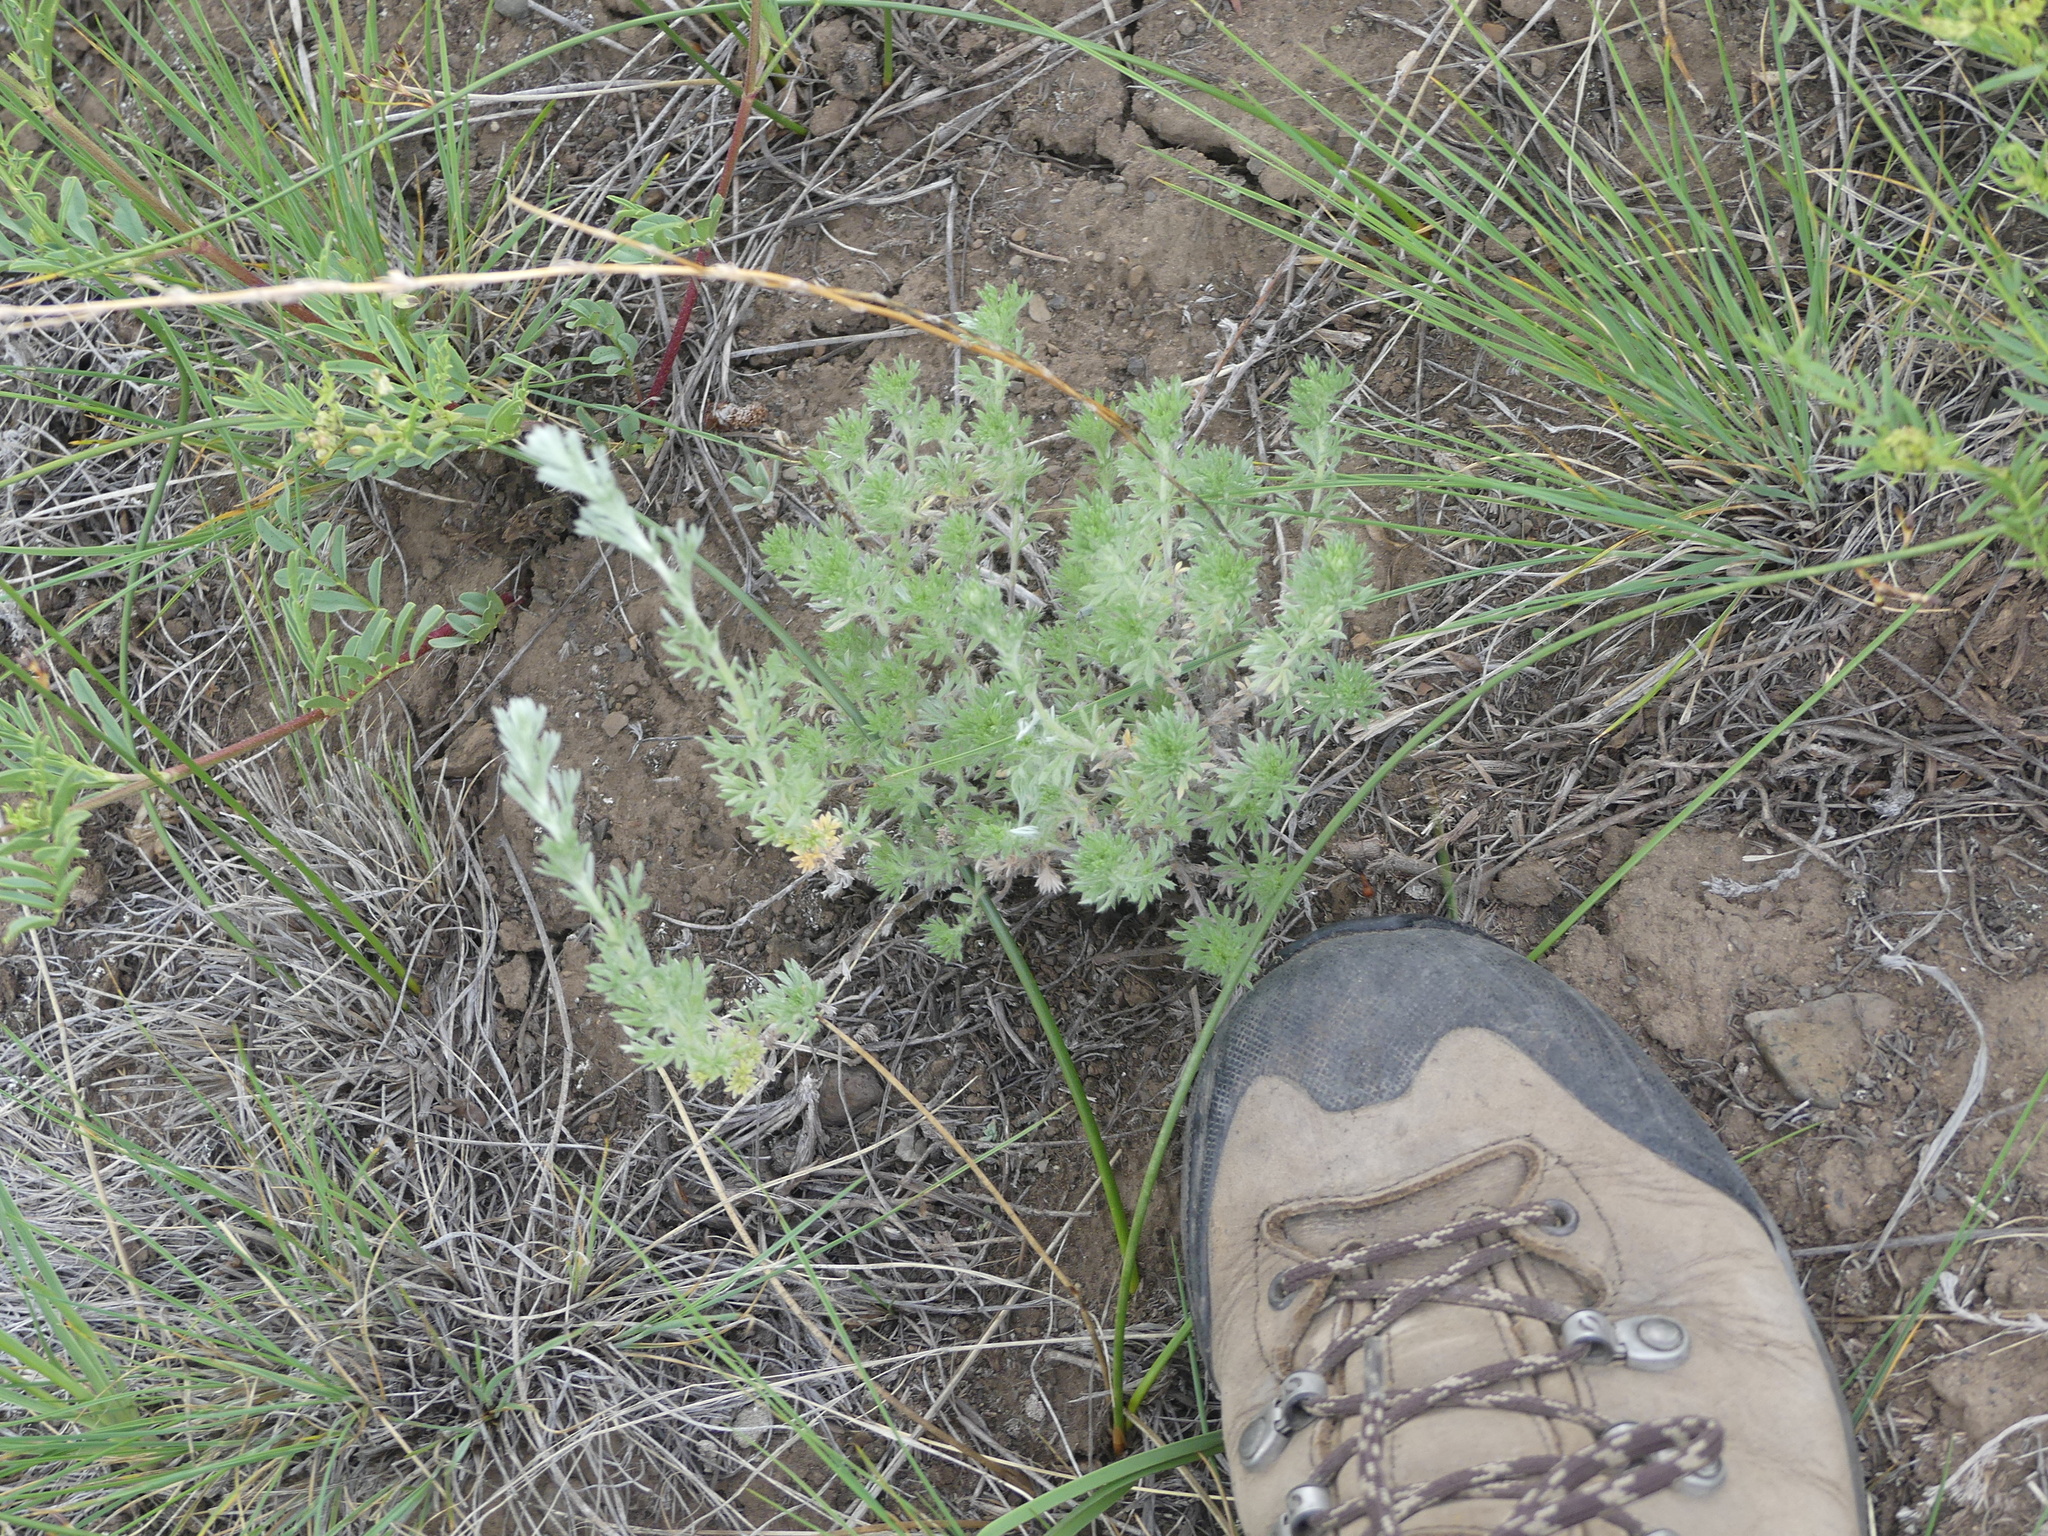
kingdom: Plantae
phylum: Tracheophyta
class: Magnoliopsida
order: Asterales
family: Asteraceae
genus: Artemisia
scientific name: Artemisia frigida
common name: Prairie sagewort
